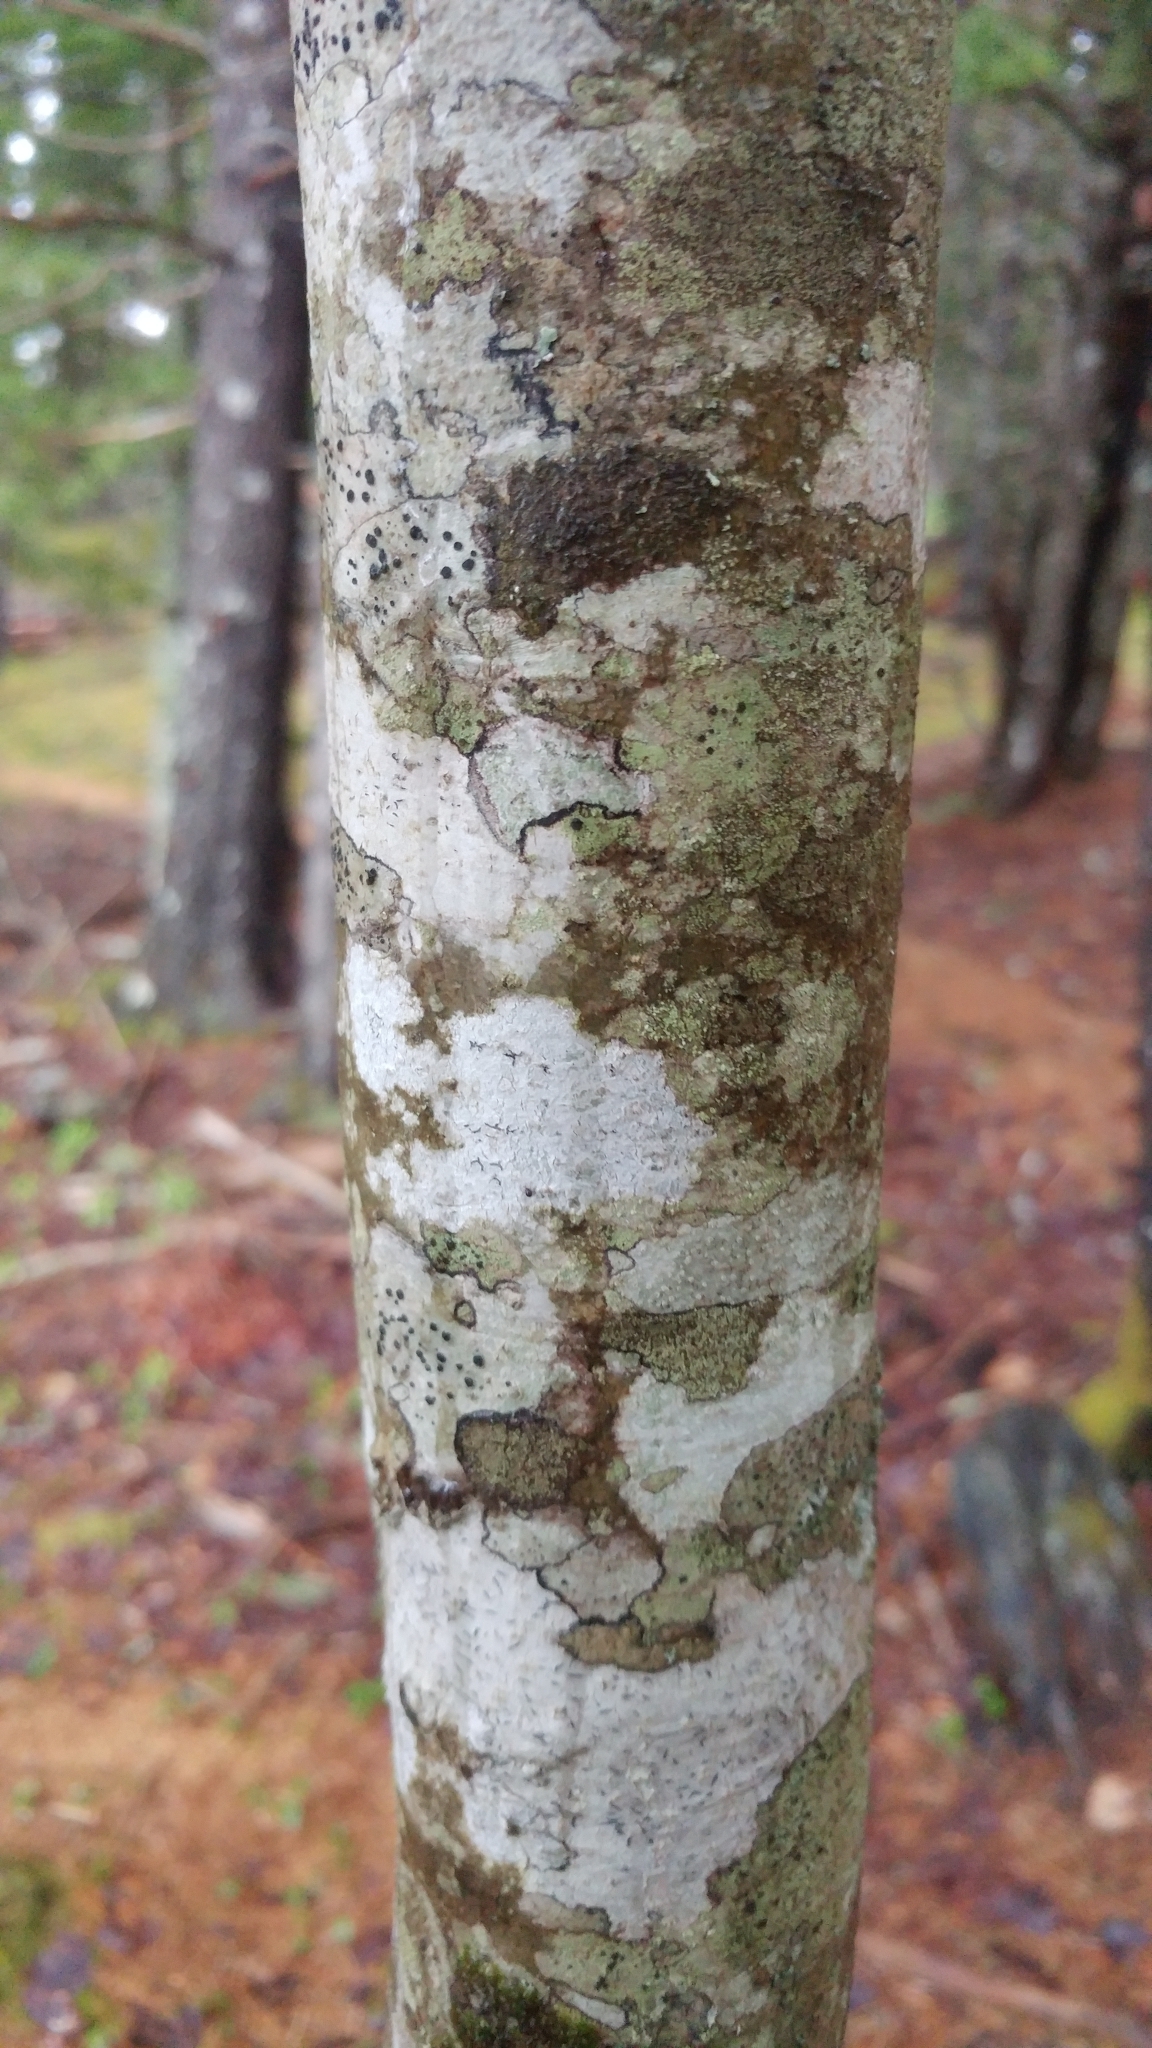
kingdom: Plantae
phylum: Tracheophyta
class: Magnoliopsida
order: Fagales
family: Fagaceae
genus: Fagus
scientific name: Fagus grandifolia
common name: American beech
